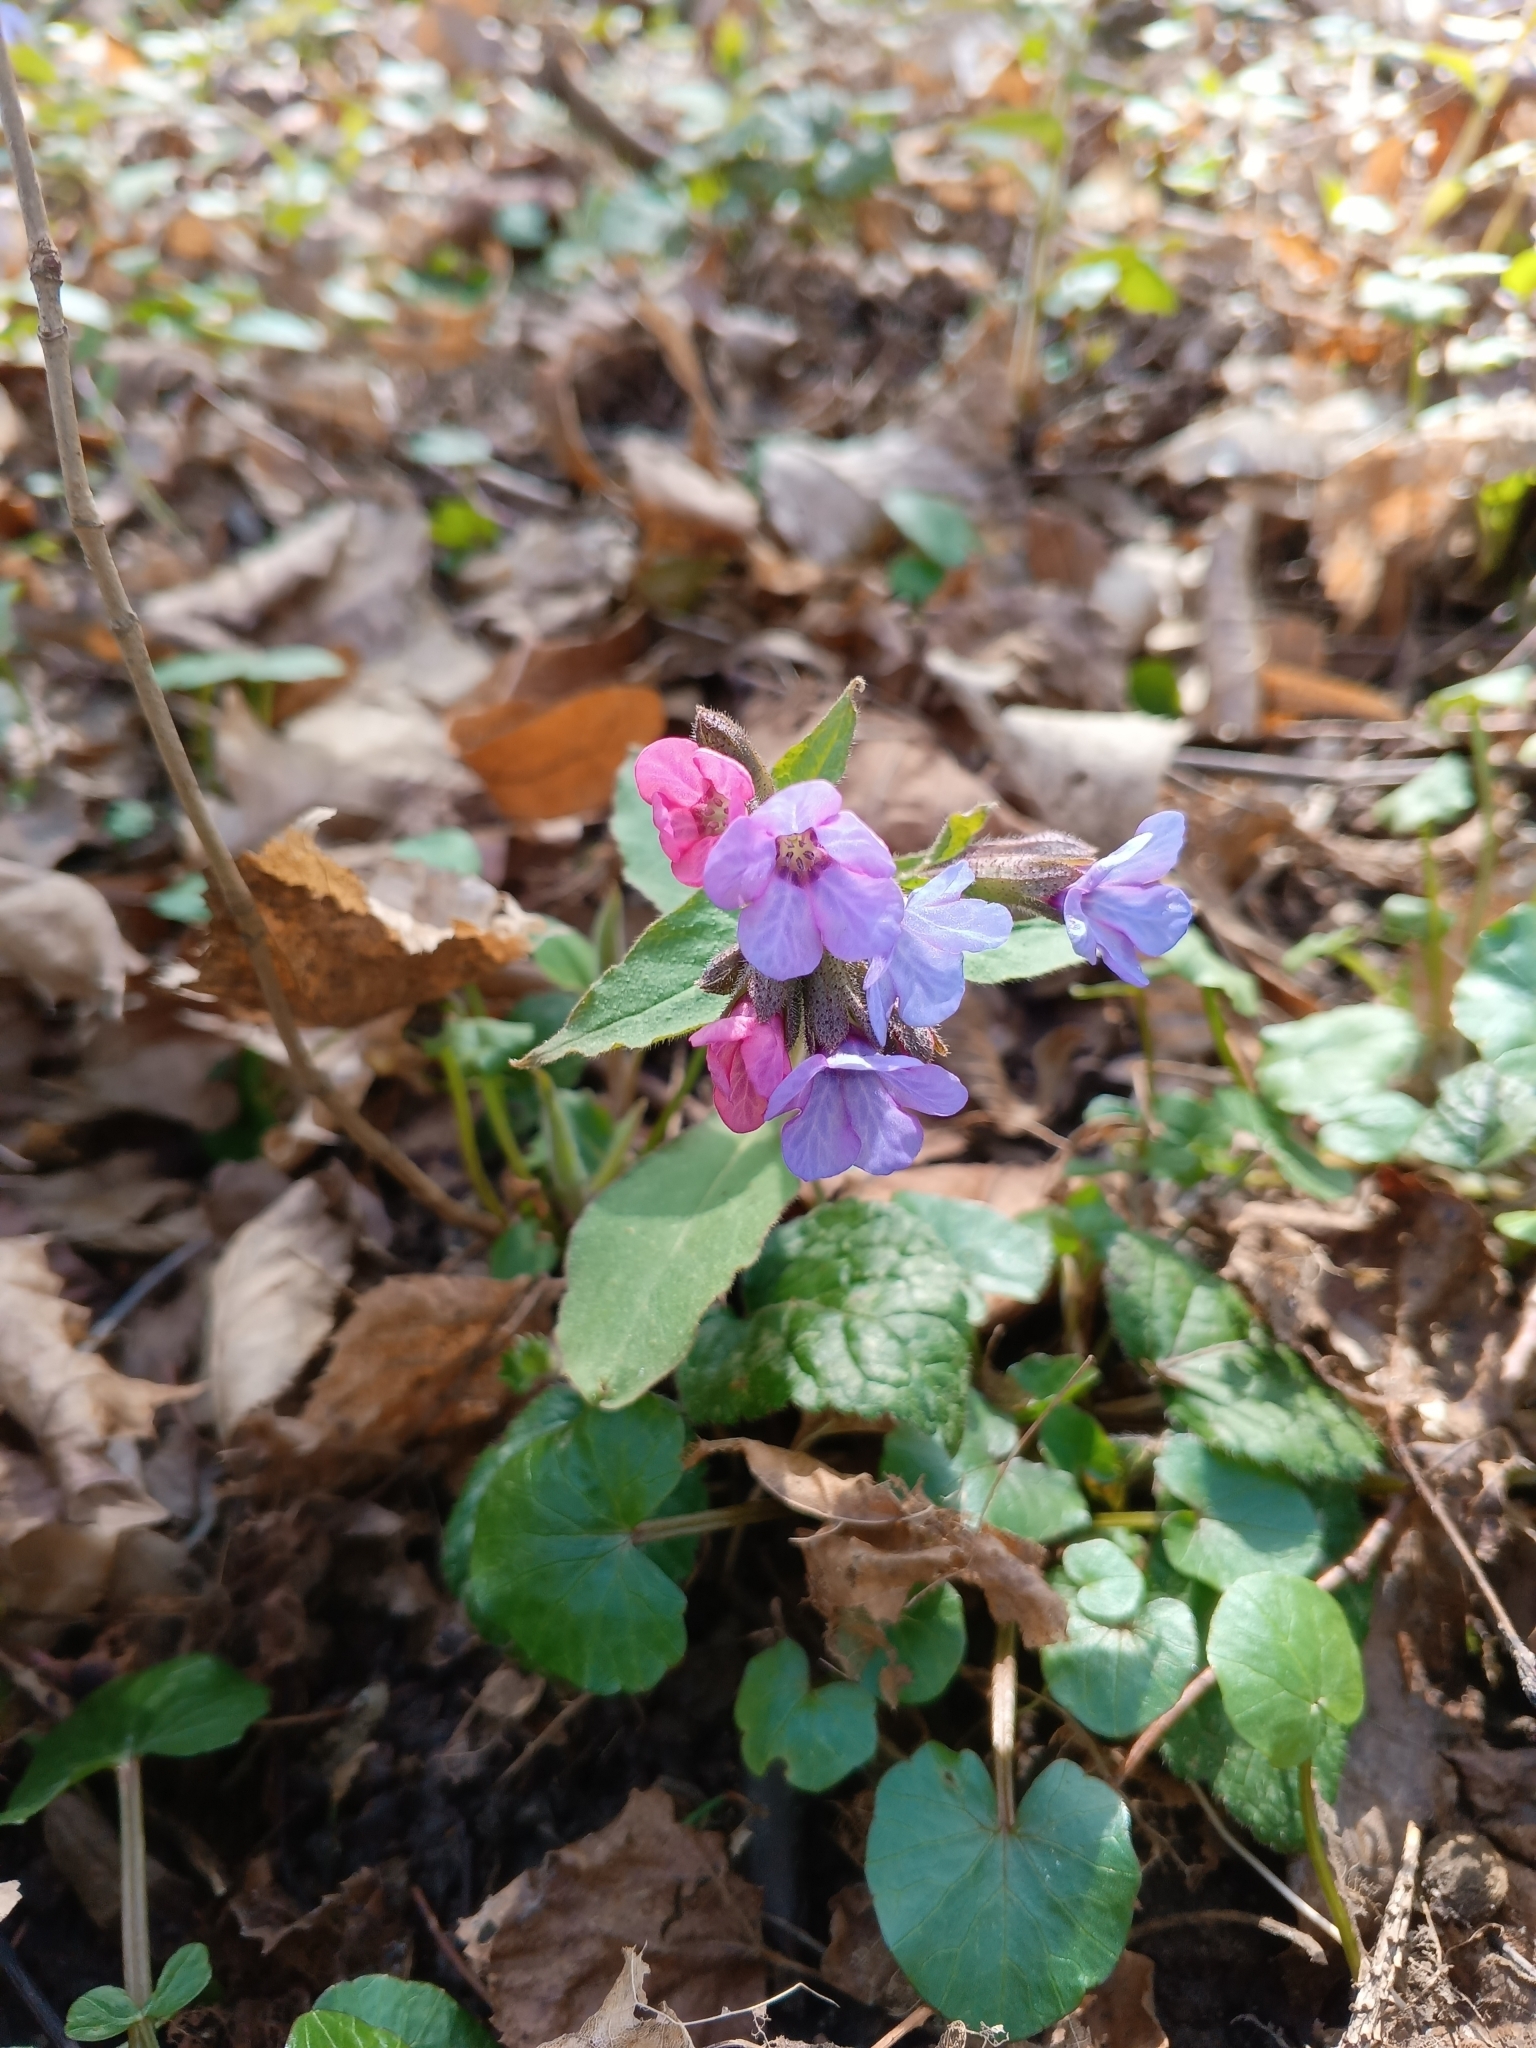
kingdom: Plantae
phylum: Tracheophyta
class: Magnoliopsida
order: Boraginales
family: Boraginaceae
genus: Pulmonaria
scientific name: Pulmonaria obscura
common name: Suffolk lungwort
